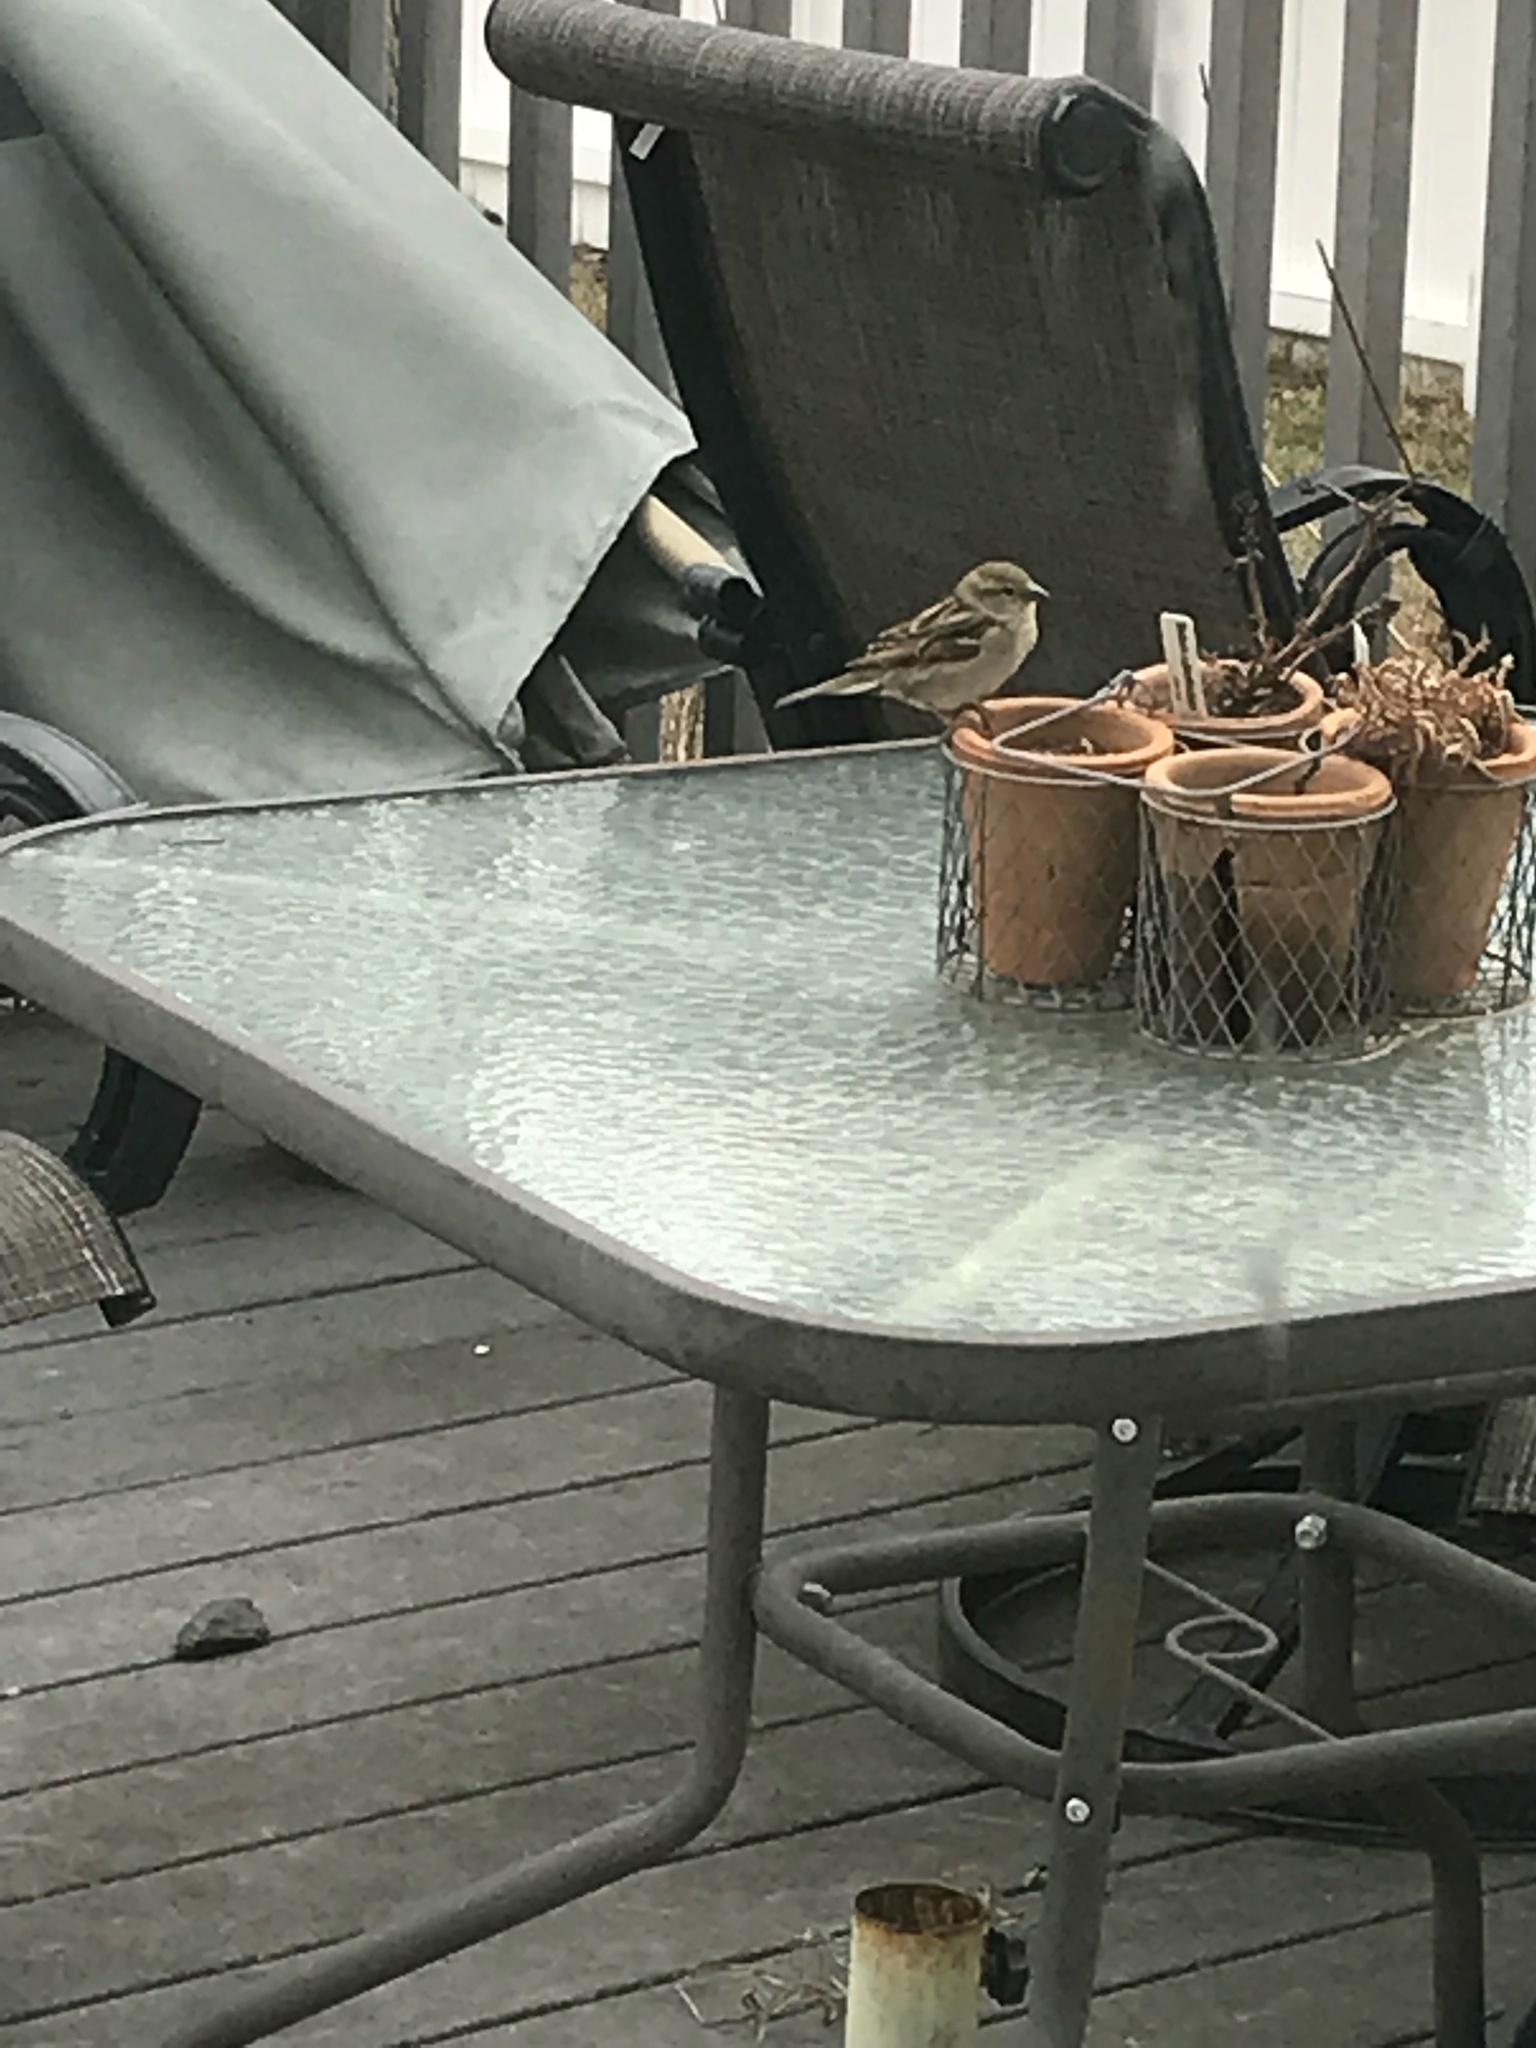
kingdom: Animalia
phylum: Chordata
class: Aves
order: Passeriformes
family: Passeridae
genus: Passer
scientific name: Passer domesticus
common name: House sparrow
